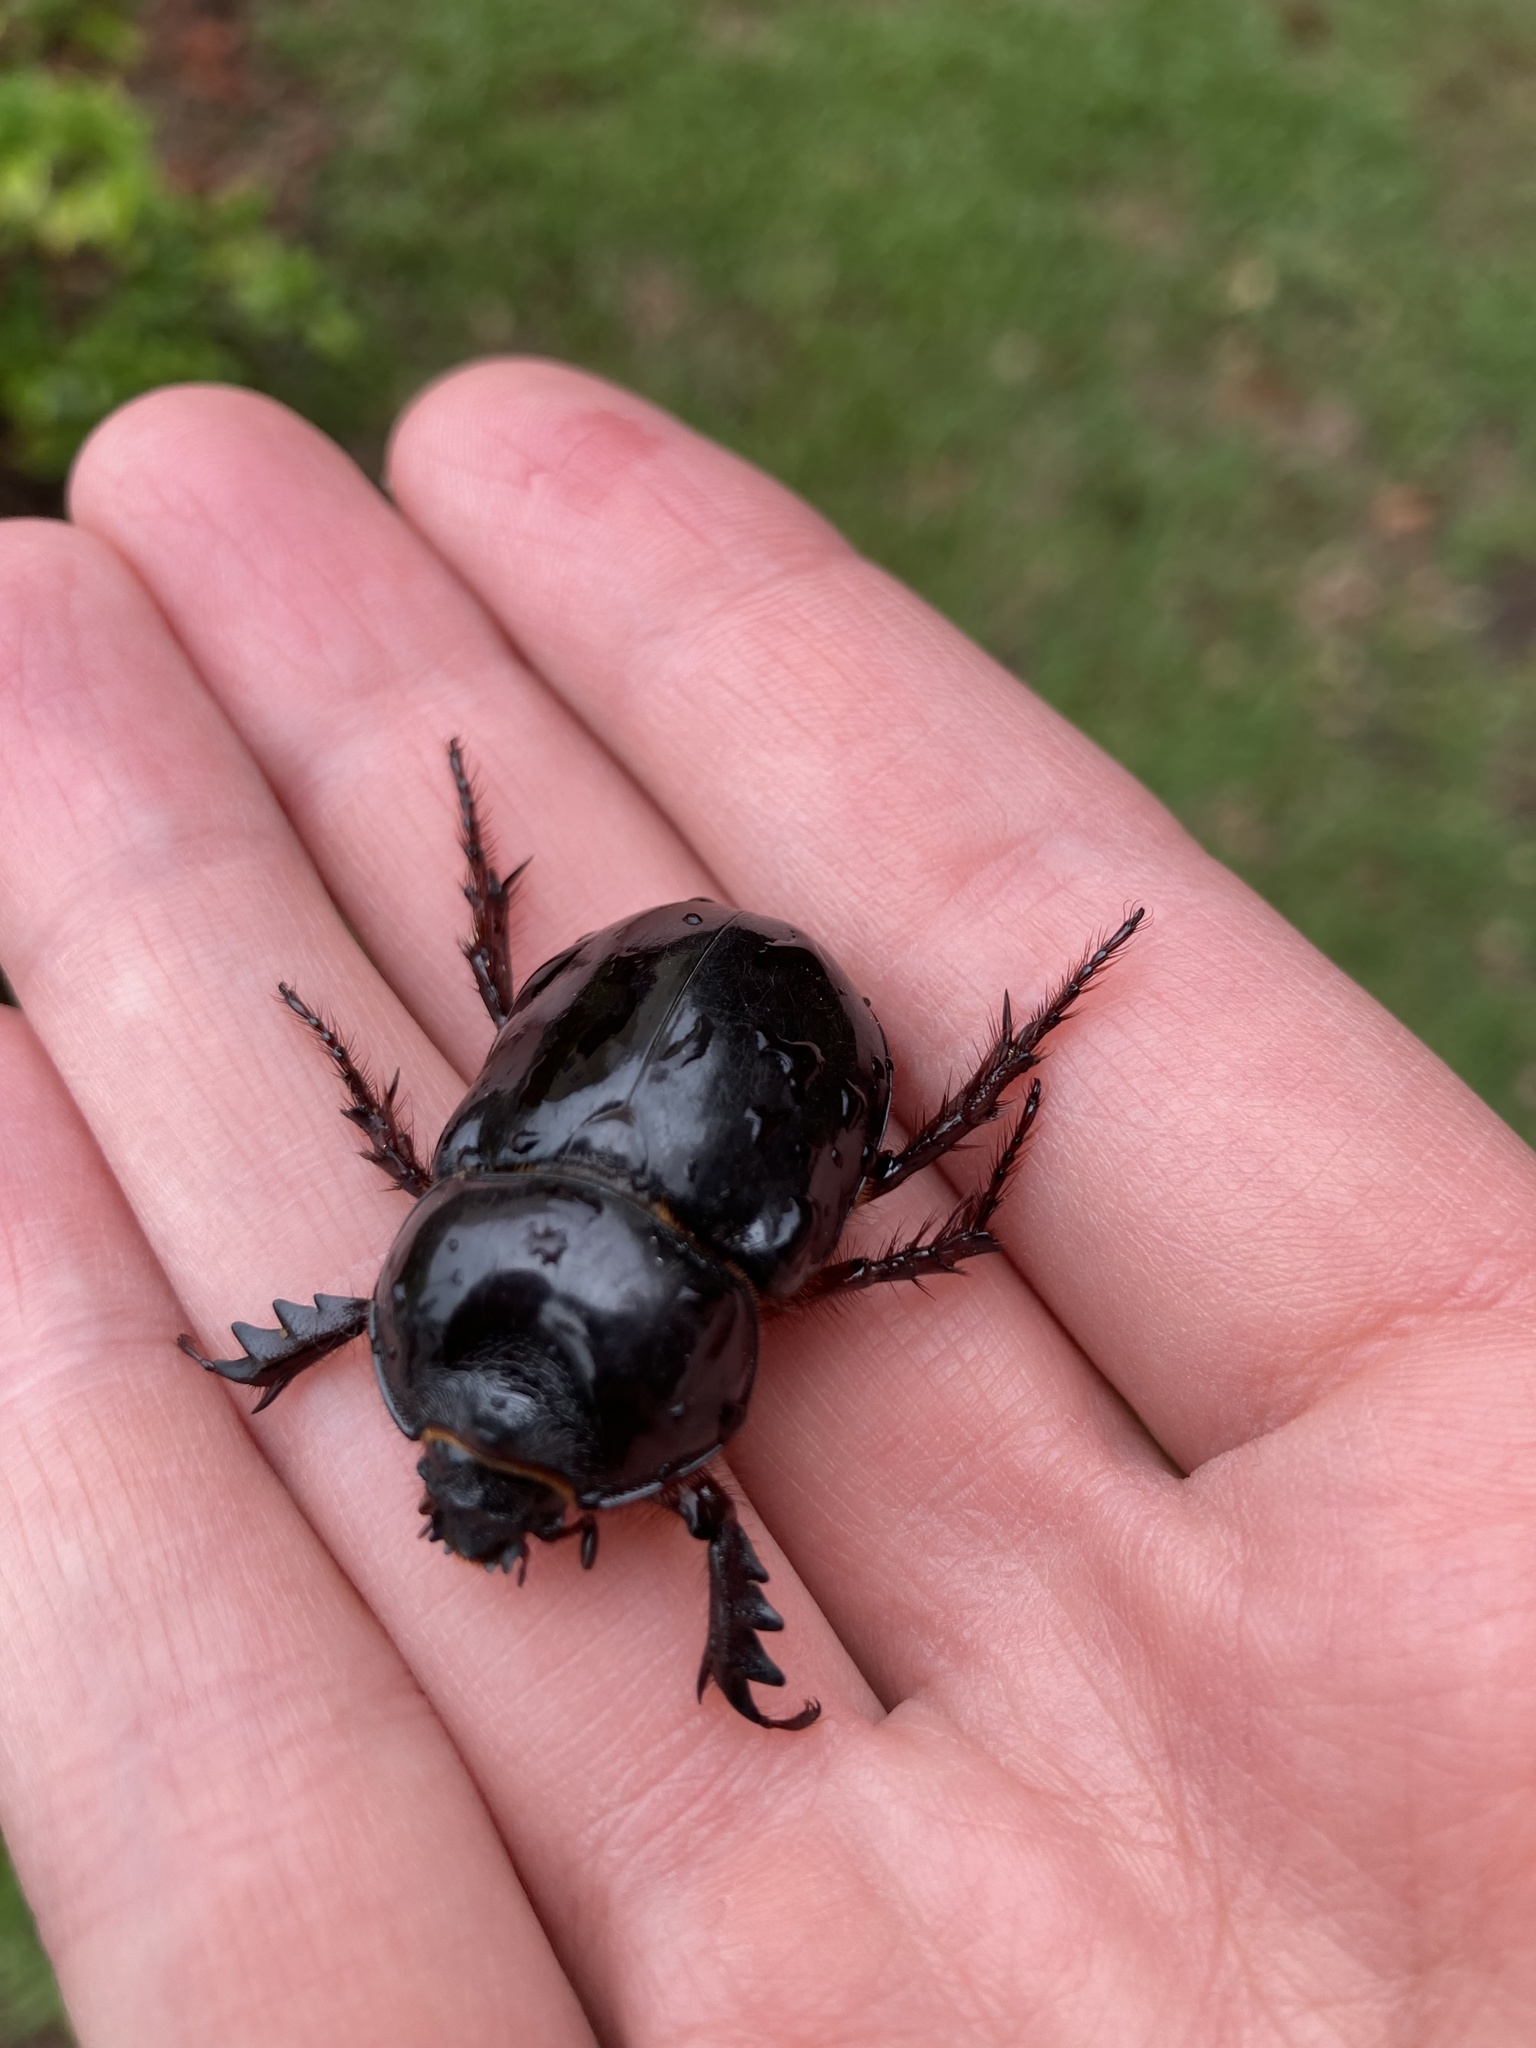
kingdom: Animalia
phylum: Arthropoda
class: Insecta
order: Coleoptera
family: Scarabaeidae
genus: Strategus
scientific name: Strategus antaeus
